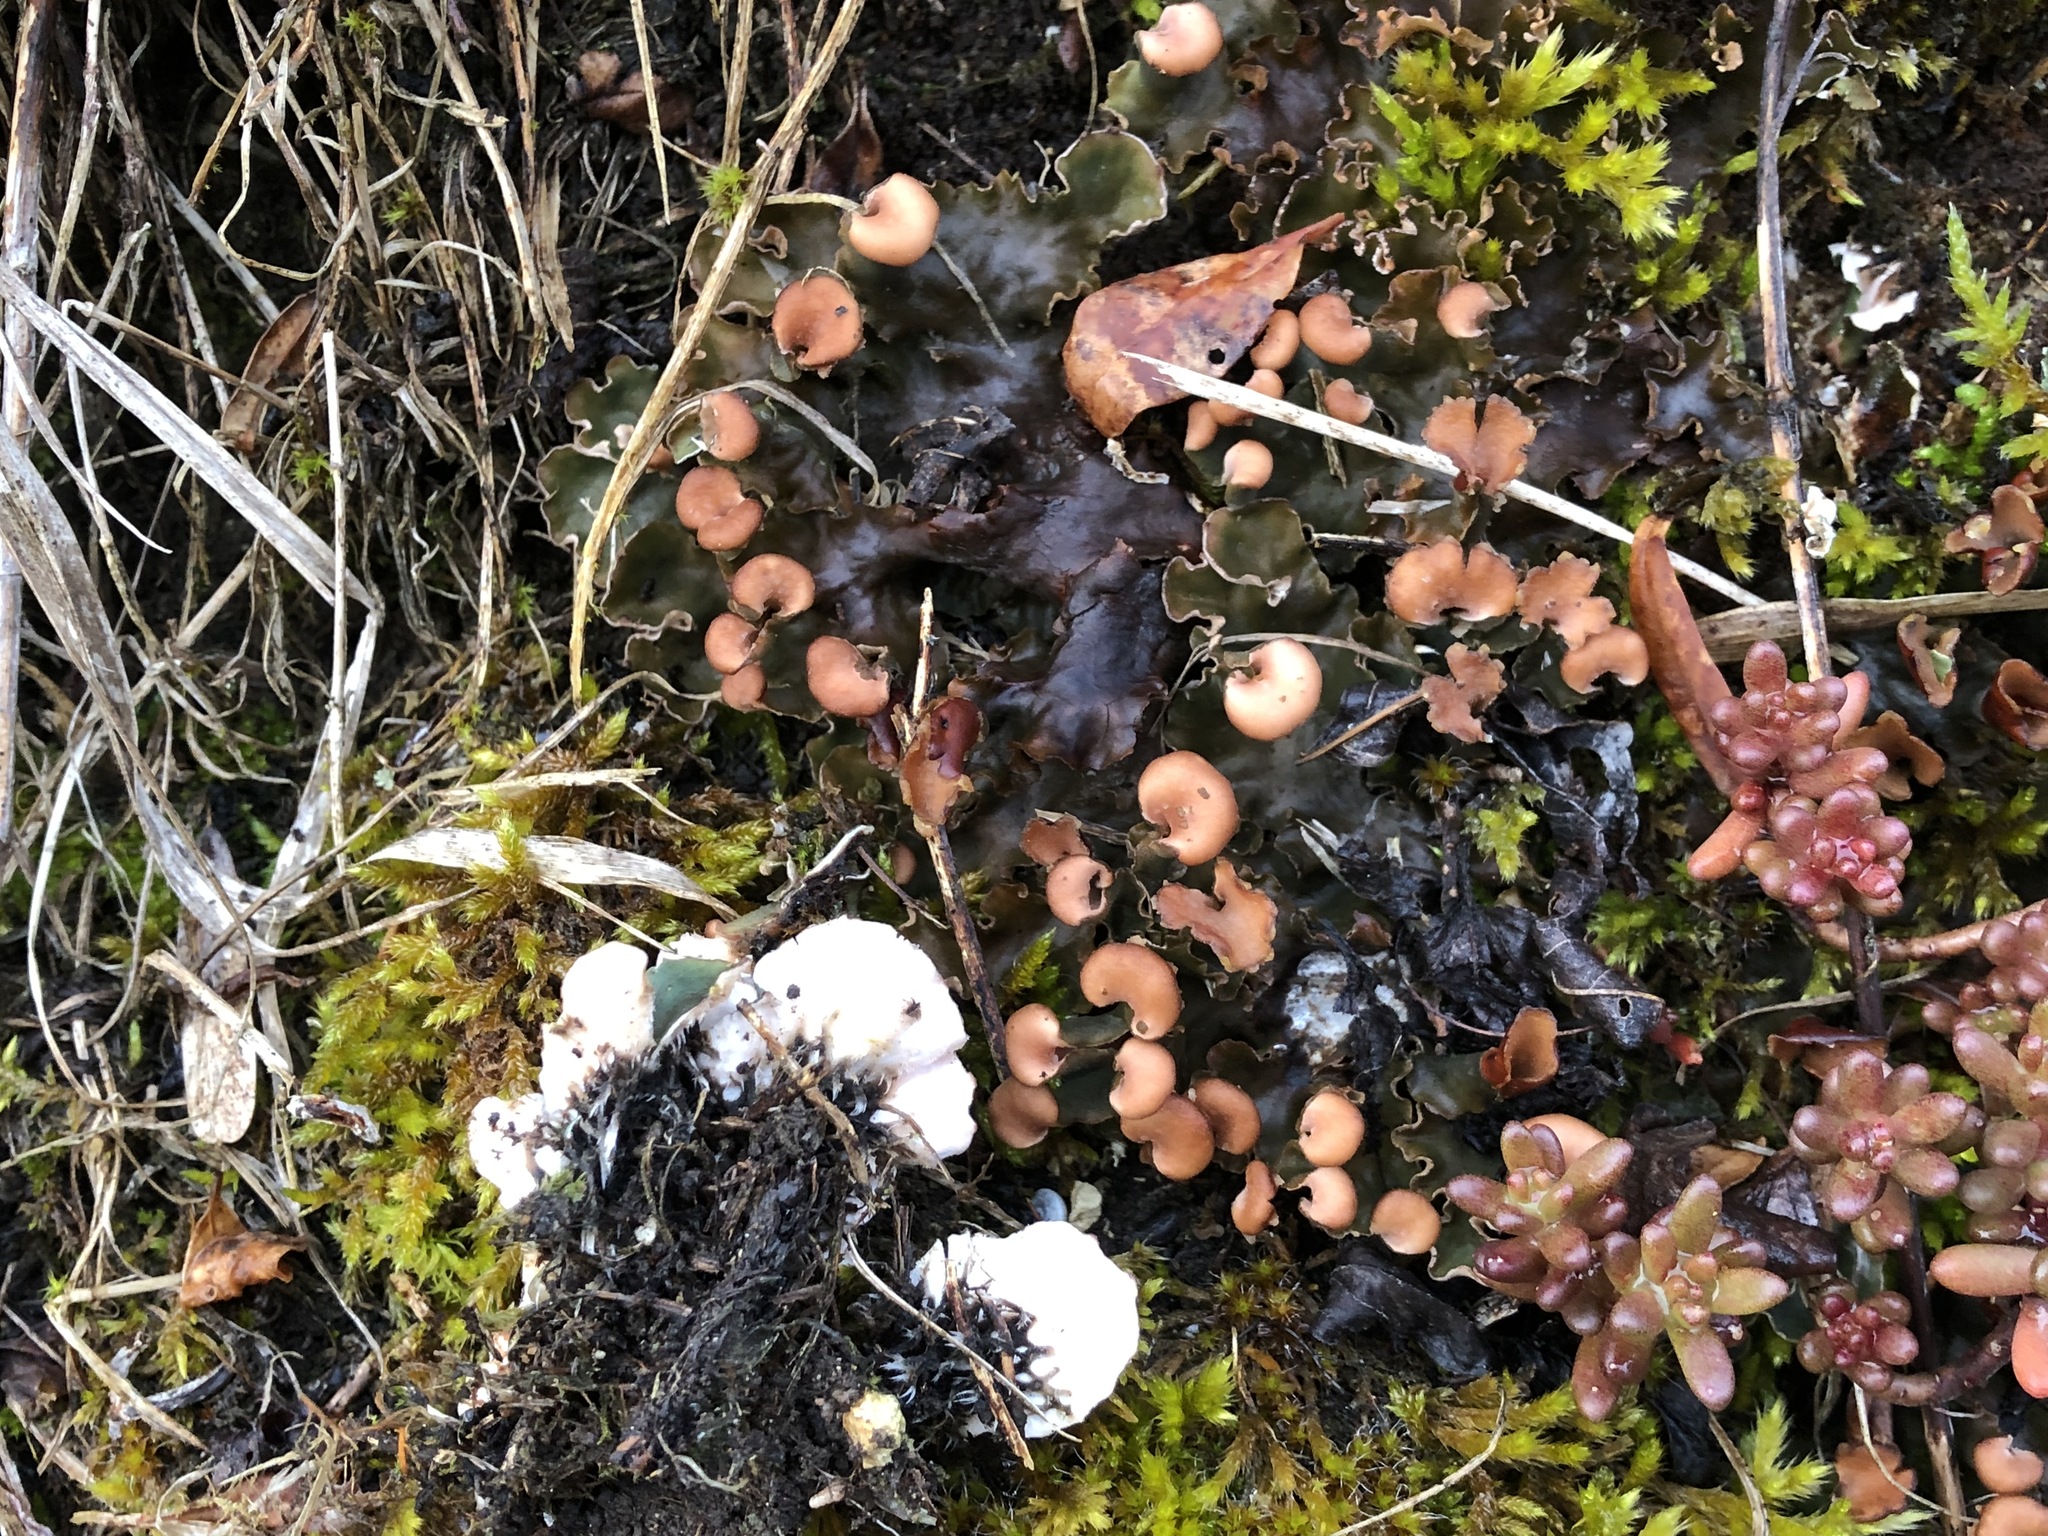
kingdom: Fungi
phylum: Ascomycota
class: Lecanoromycetes
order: Peltigerales
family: Peltigeraceae
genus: Peltigera
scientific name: Peltigera rufescens
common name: Field dog lichen
